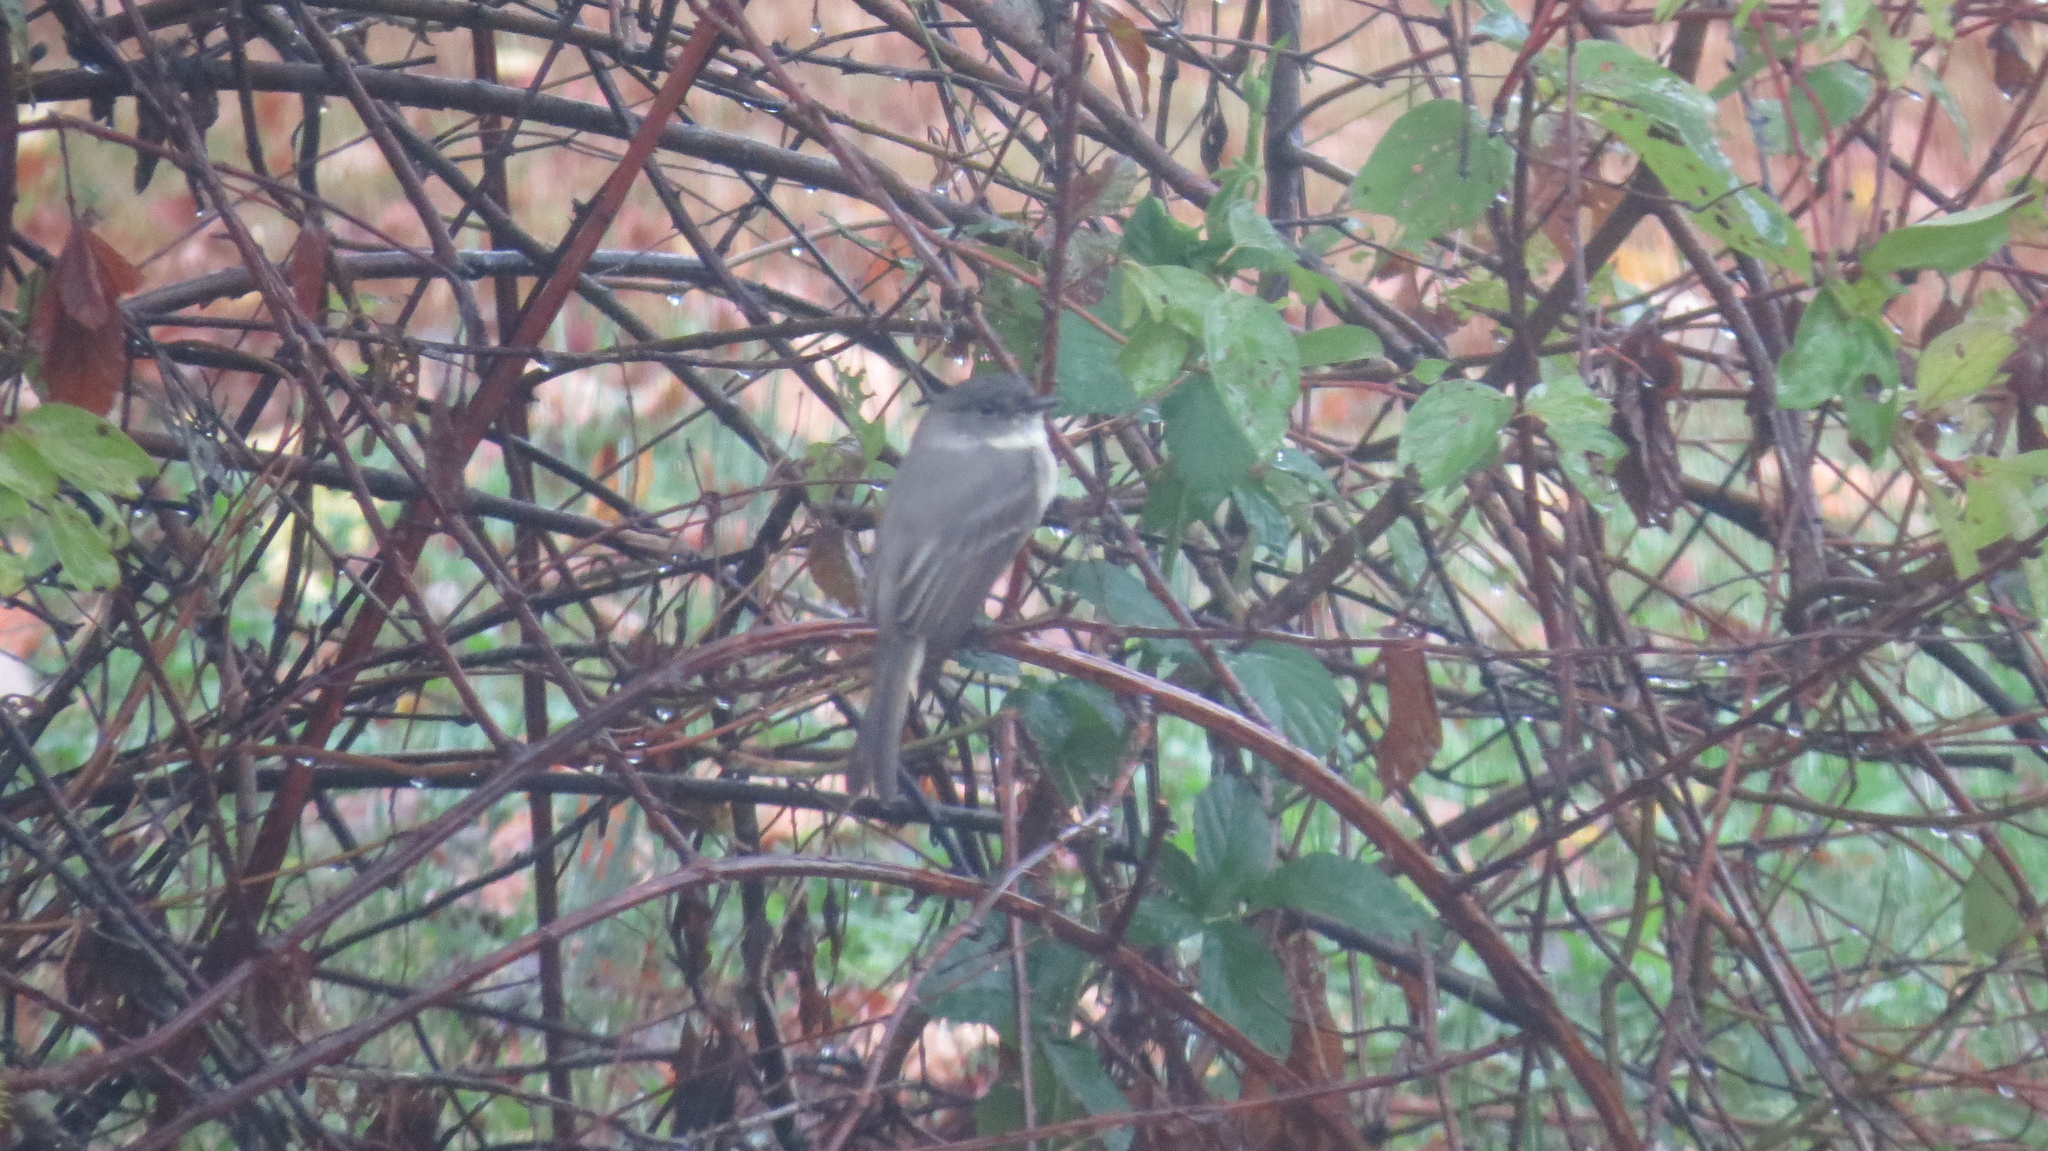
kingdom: Animalia
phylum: Chordata
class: Aves
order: Passeriformes
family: Tyrannidae
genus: Sayornis
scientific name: Sayornis phoebe
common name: Eastern phoebe
